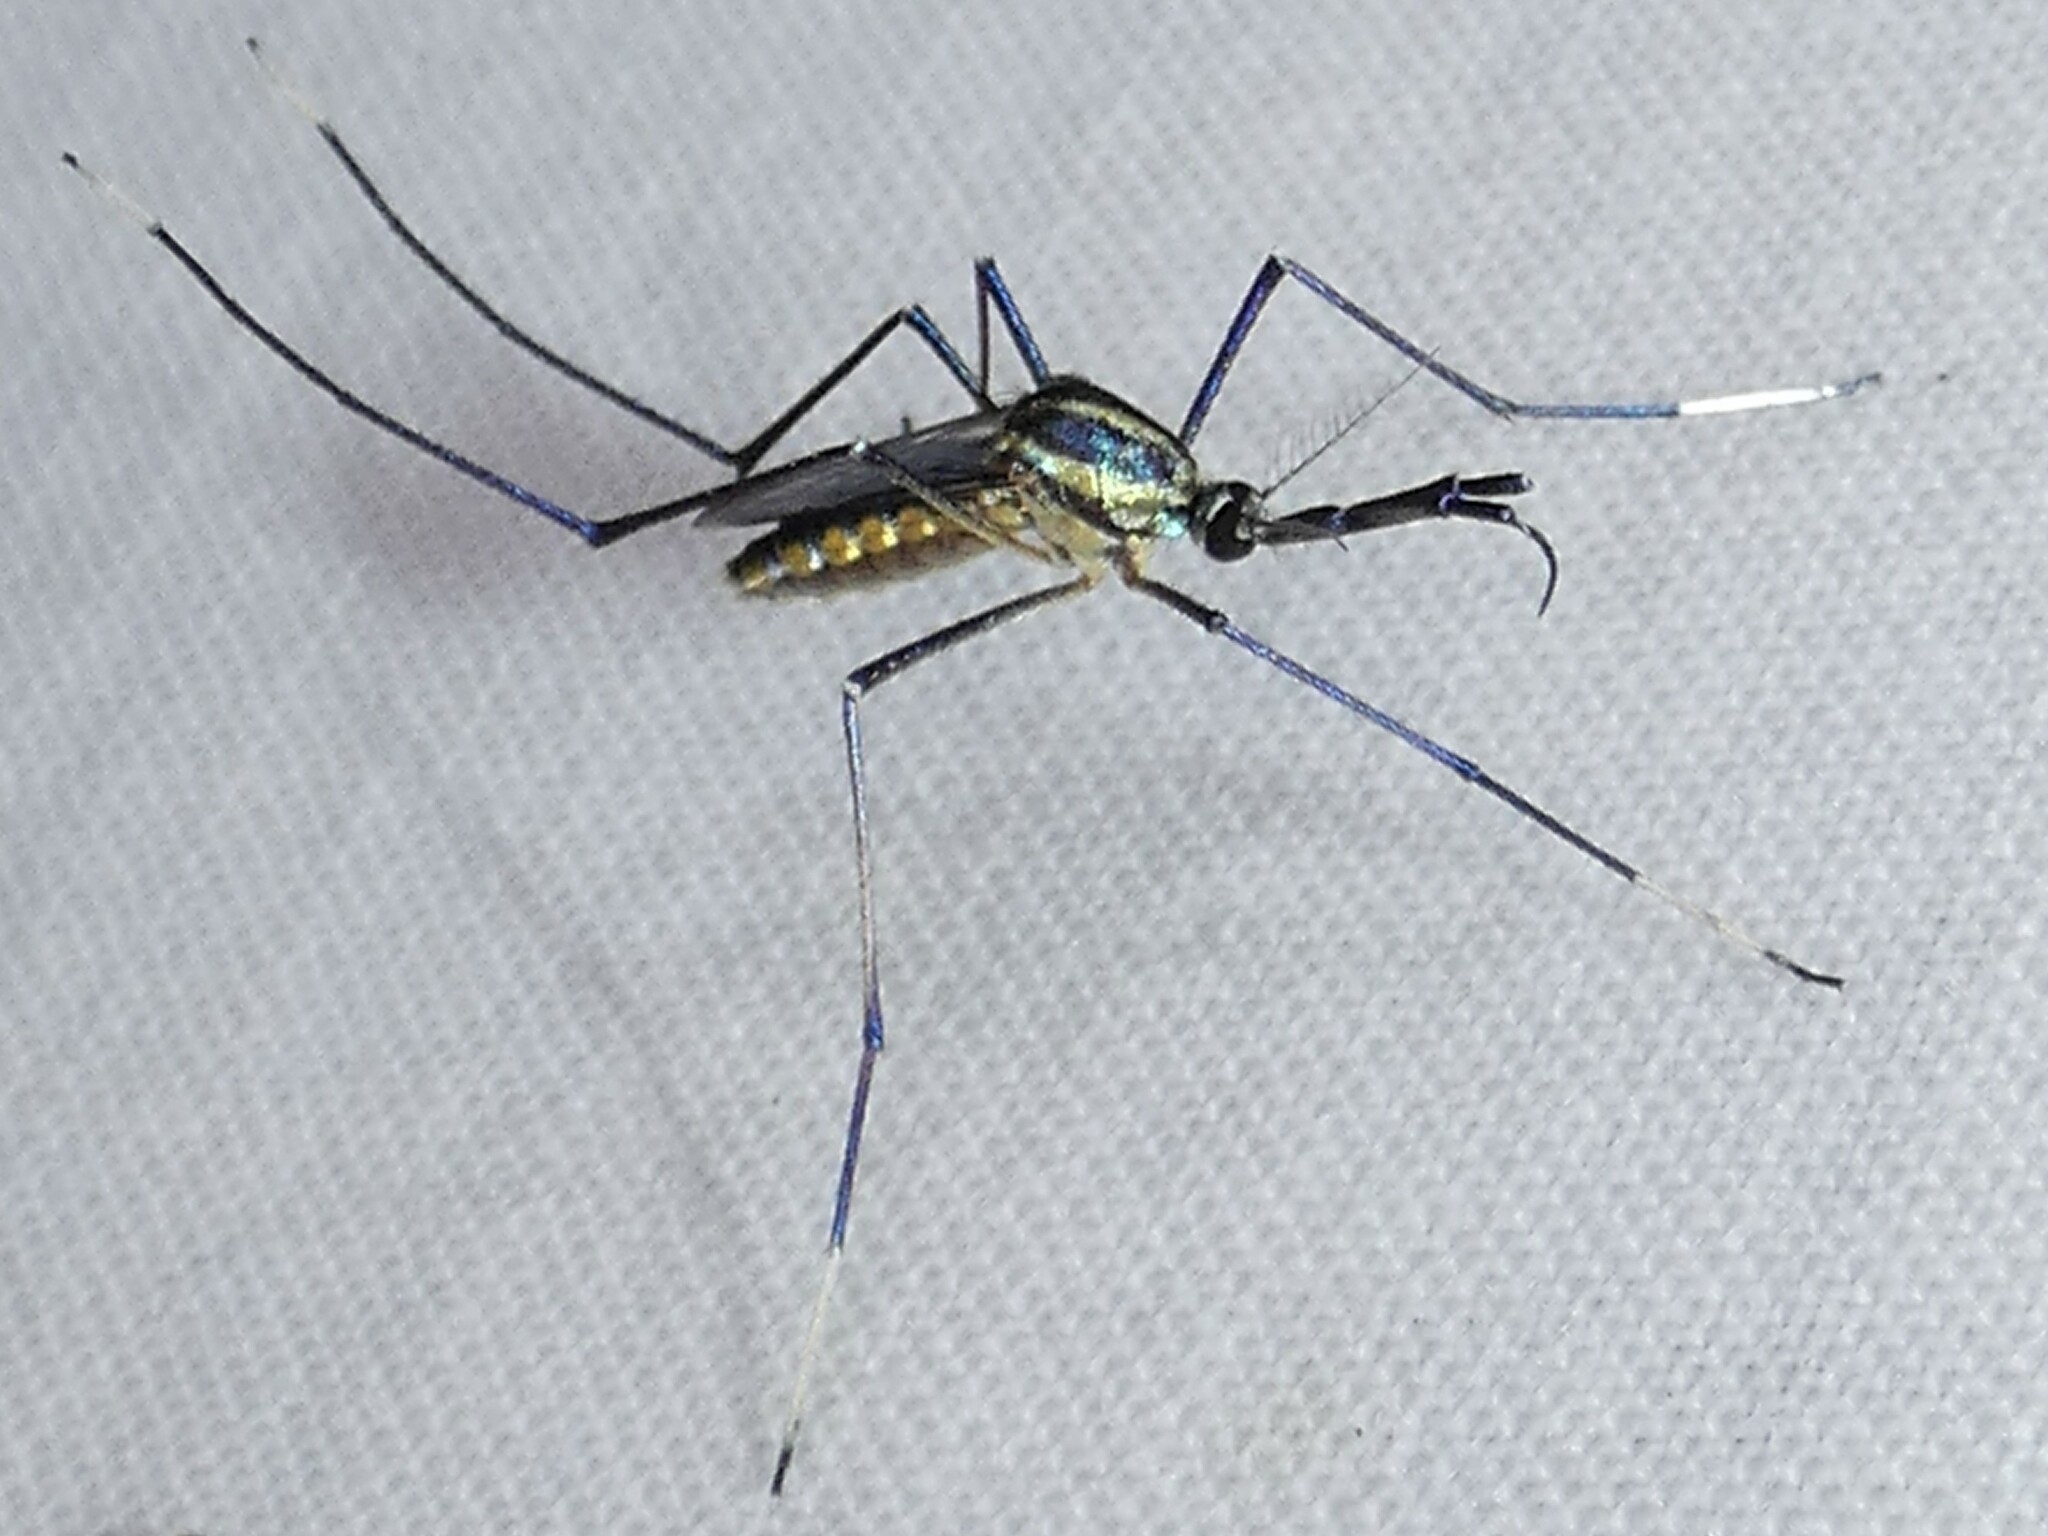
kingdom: Animalia
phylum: Arthropoda
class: Insecta
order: Diptera
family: Culicidae
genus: Toxorhynchites
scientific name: Toxorhynchites rutilus
